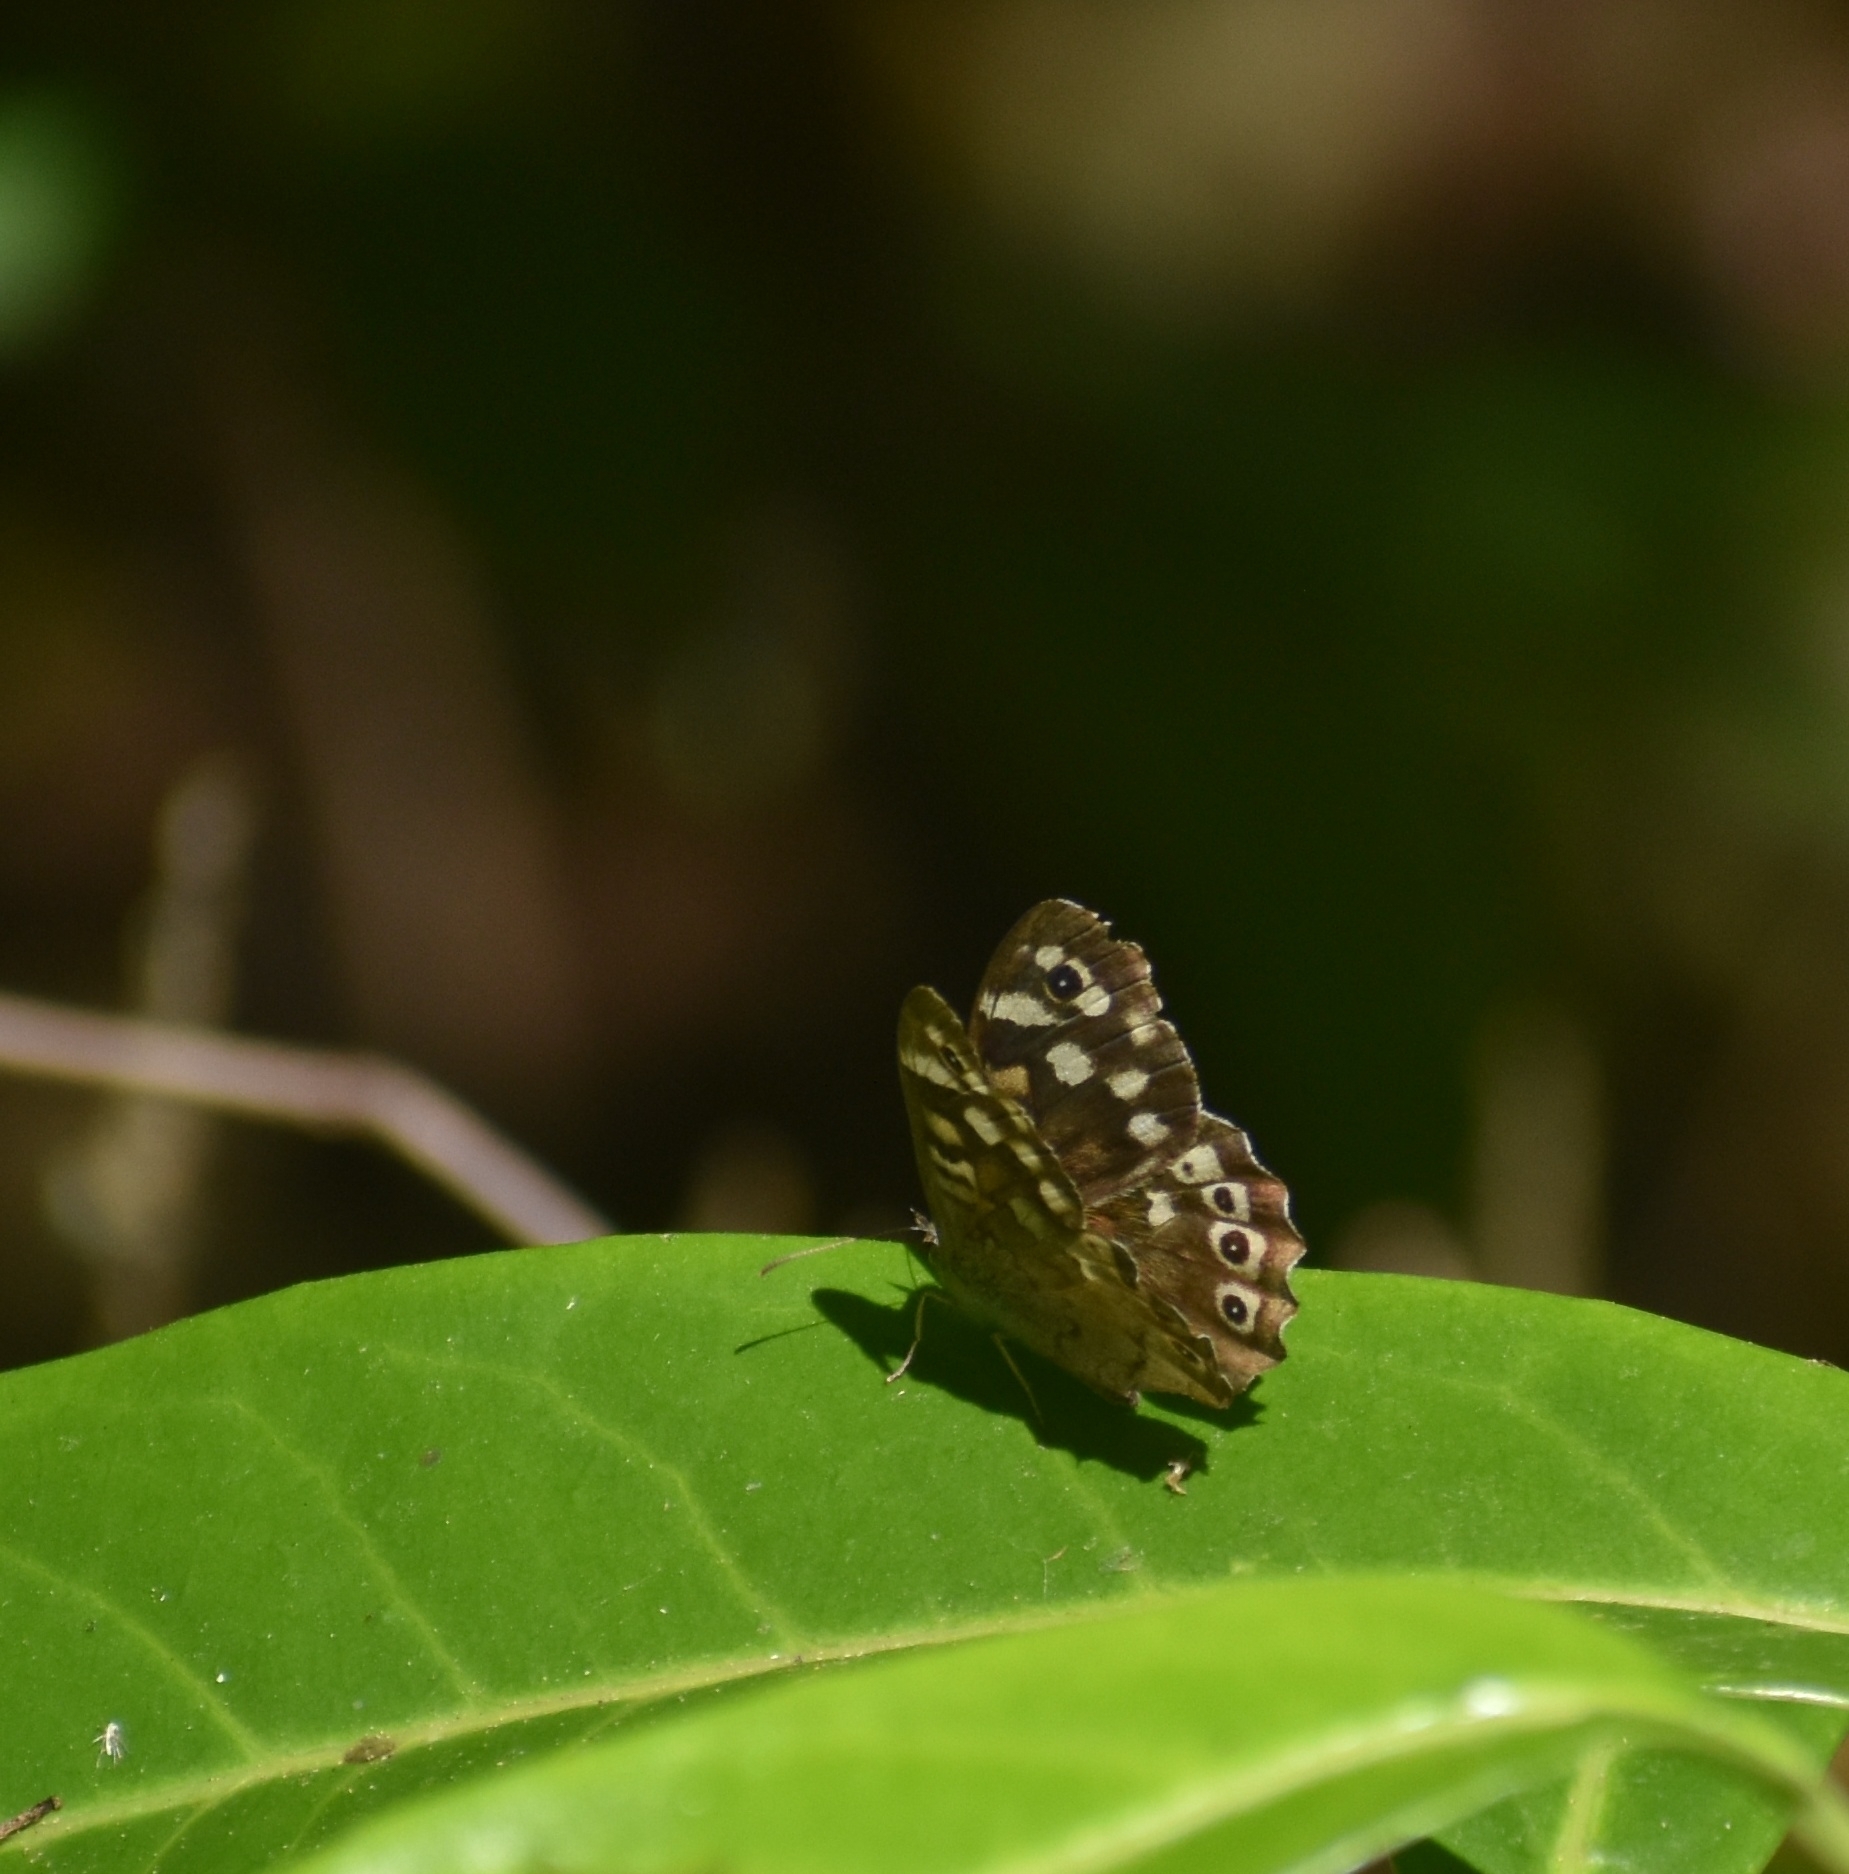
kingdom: Animalia
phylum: Arthropoda
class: Insecta
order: Lepidoptera
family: Nymphalidae
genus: Pararge
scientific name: Pararge aegeria
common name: Speckled wood
